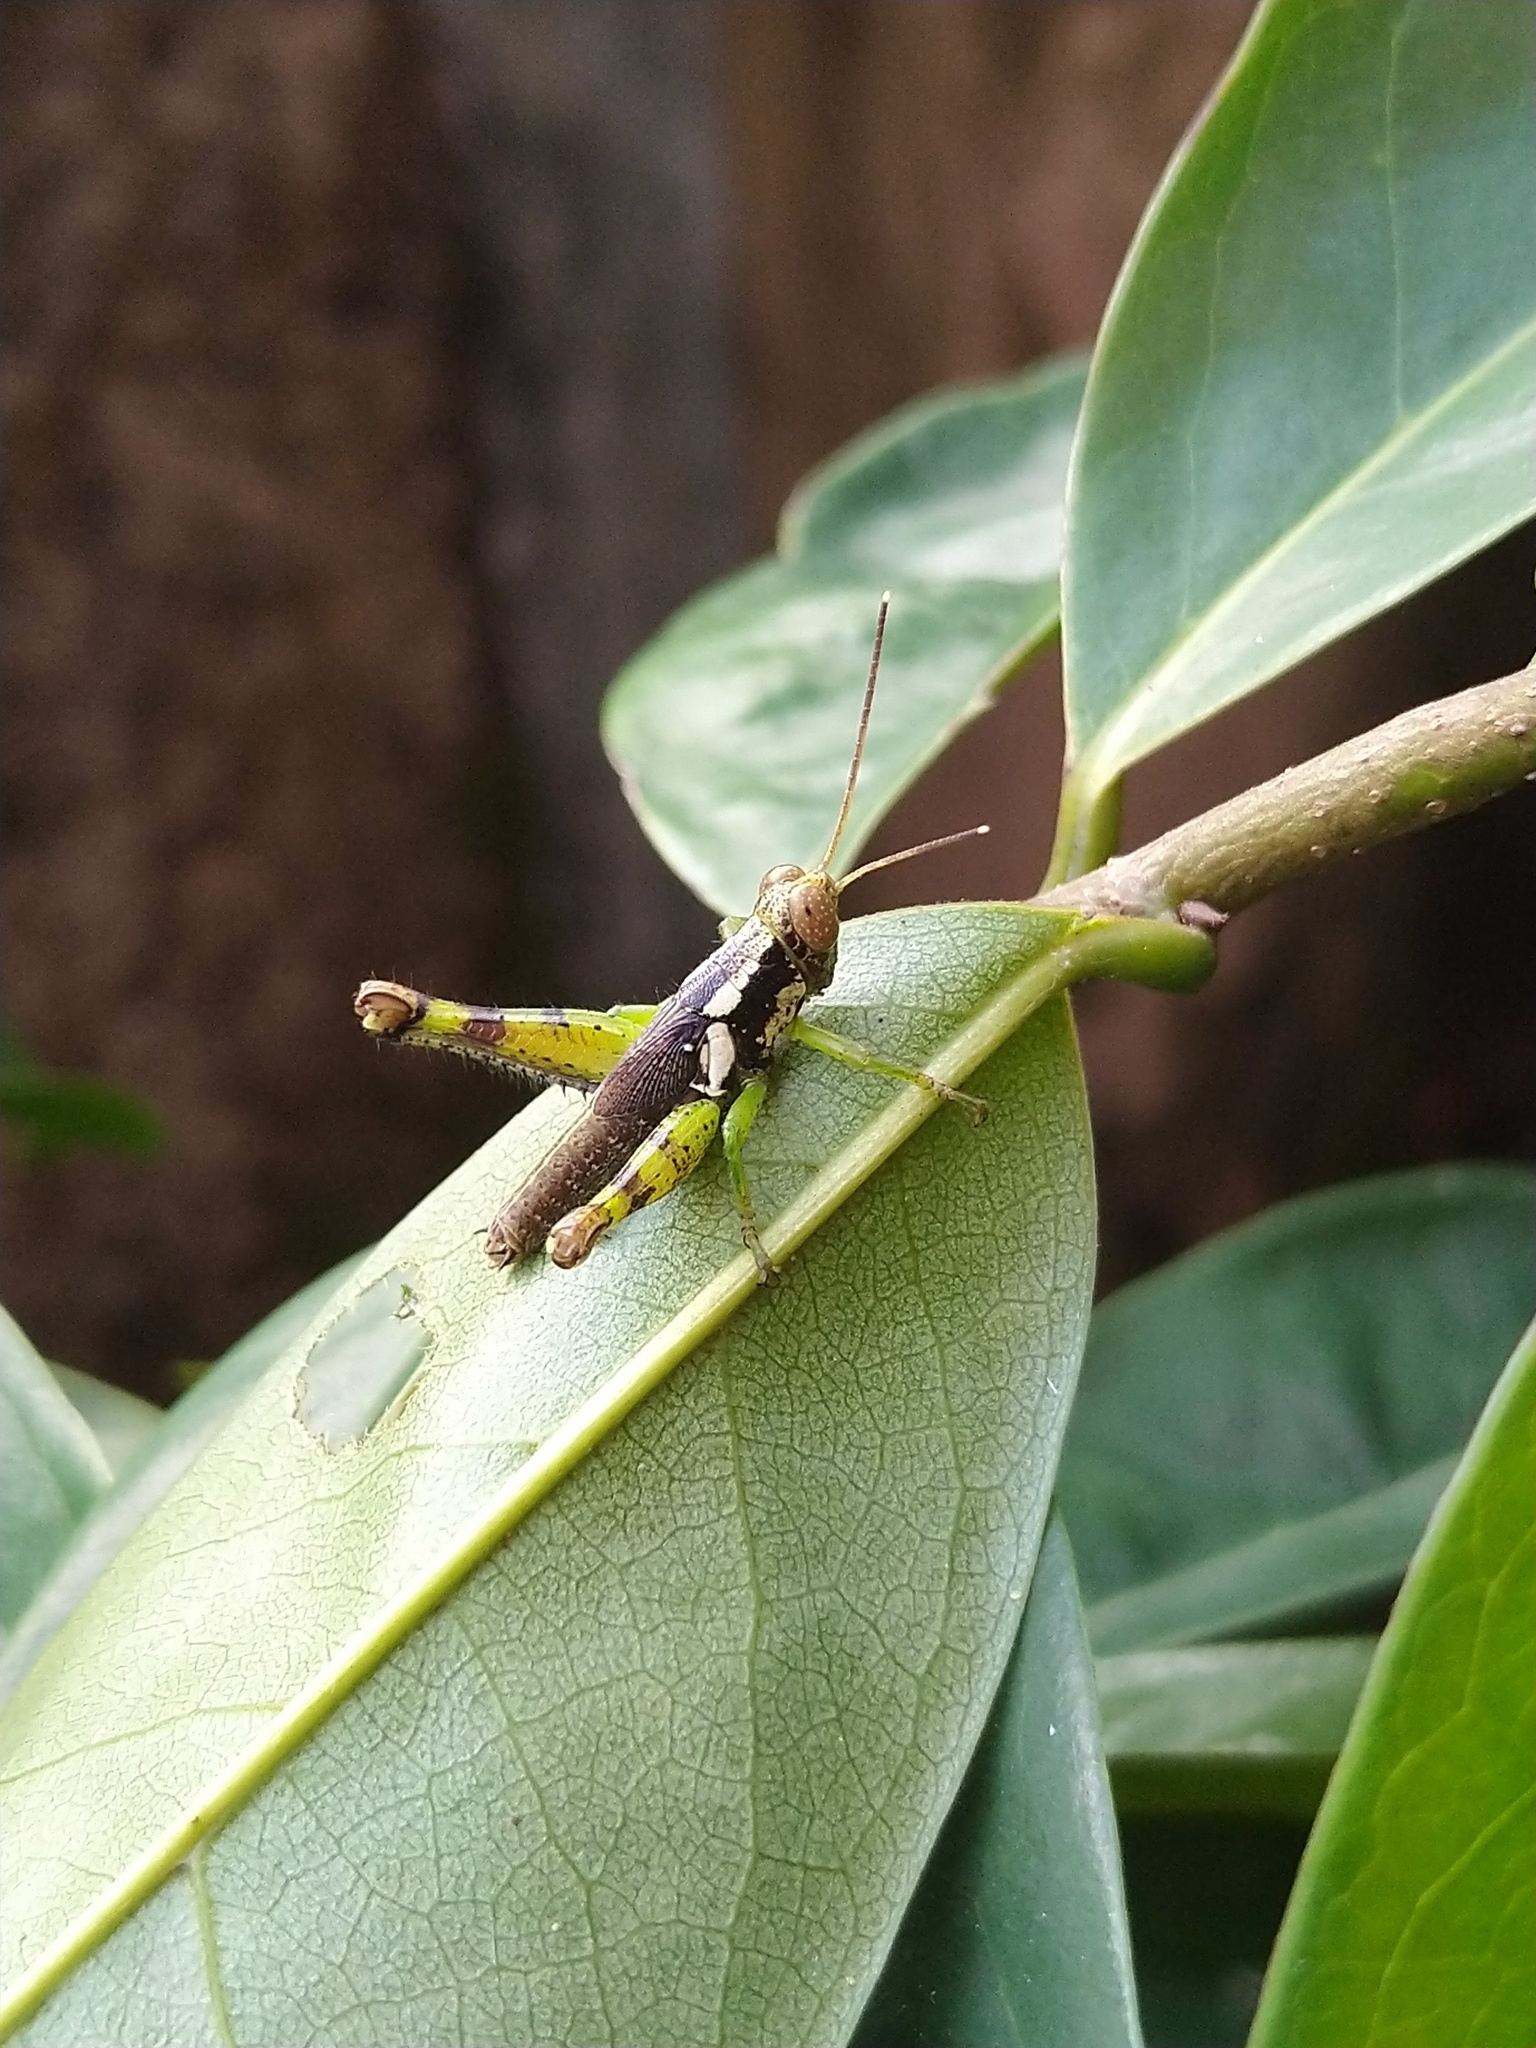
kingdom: Animalia
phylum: Arthropoda
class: Insecta
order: Orthoptera
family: Acrididae
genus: Pirithoicus
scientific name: Pirithoicus ophthalmicus
